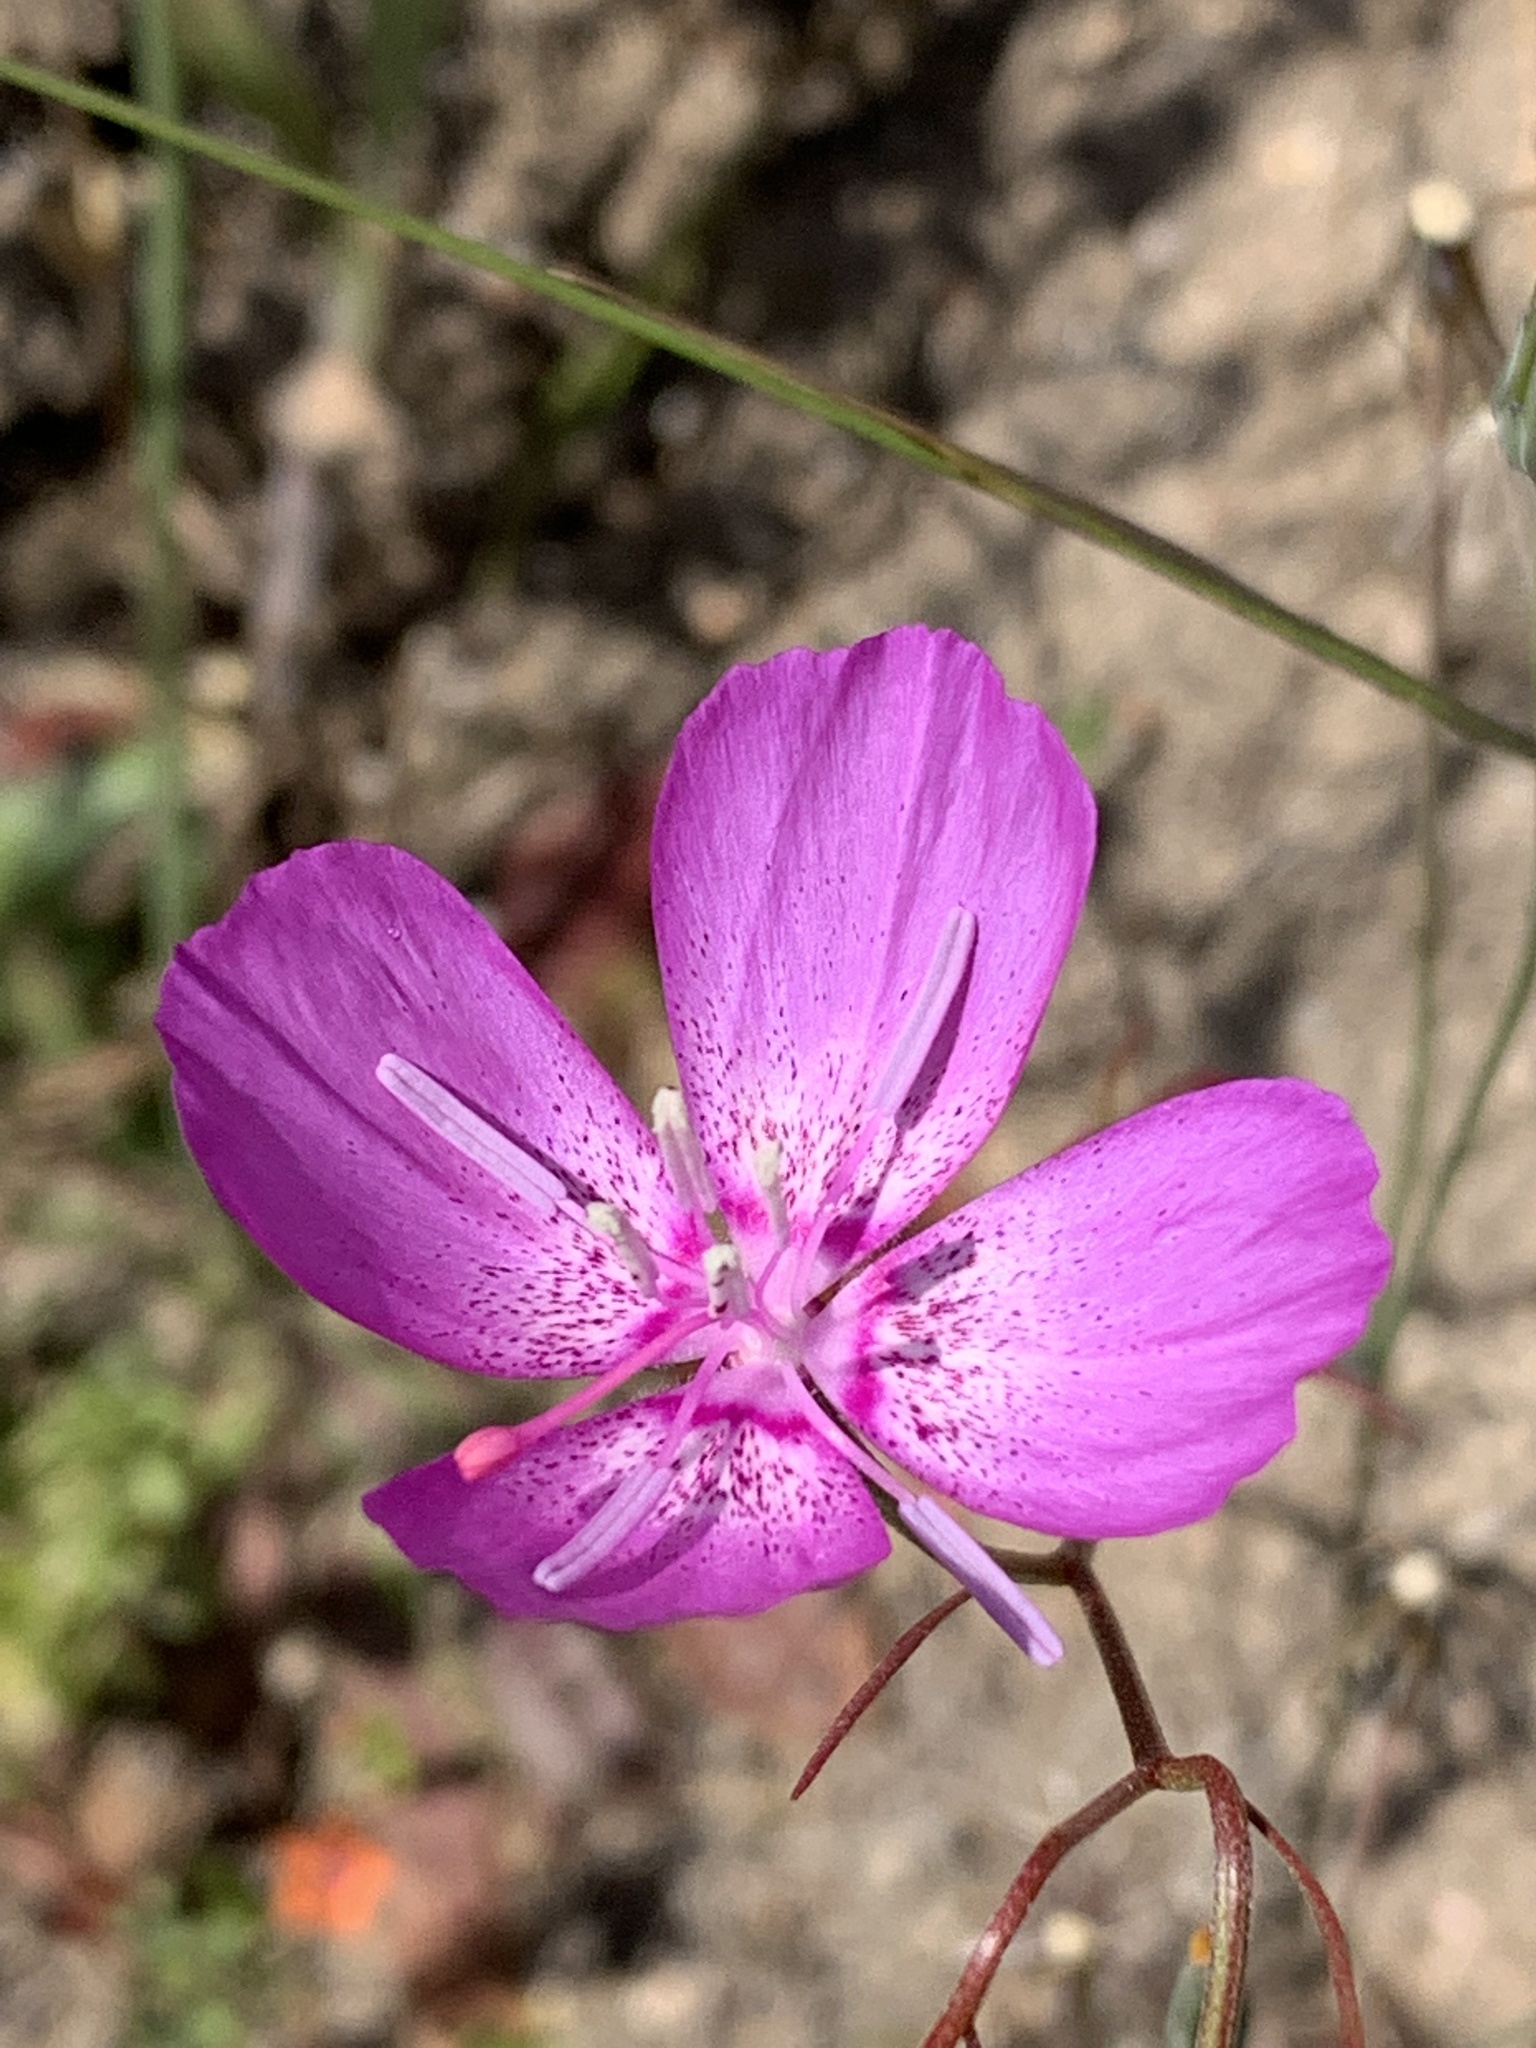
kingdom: Plantae
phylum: Tracheophyta
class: Magnoliopsida
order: Myrtales
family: Onagraceae
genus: Clarkia
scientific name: Clarkia lewisii
